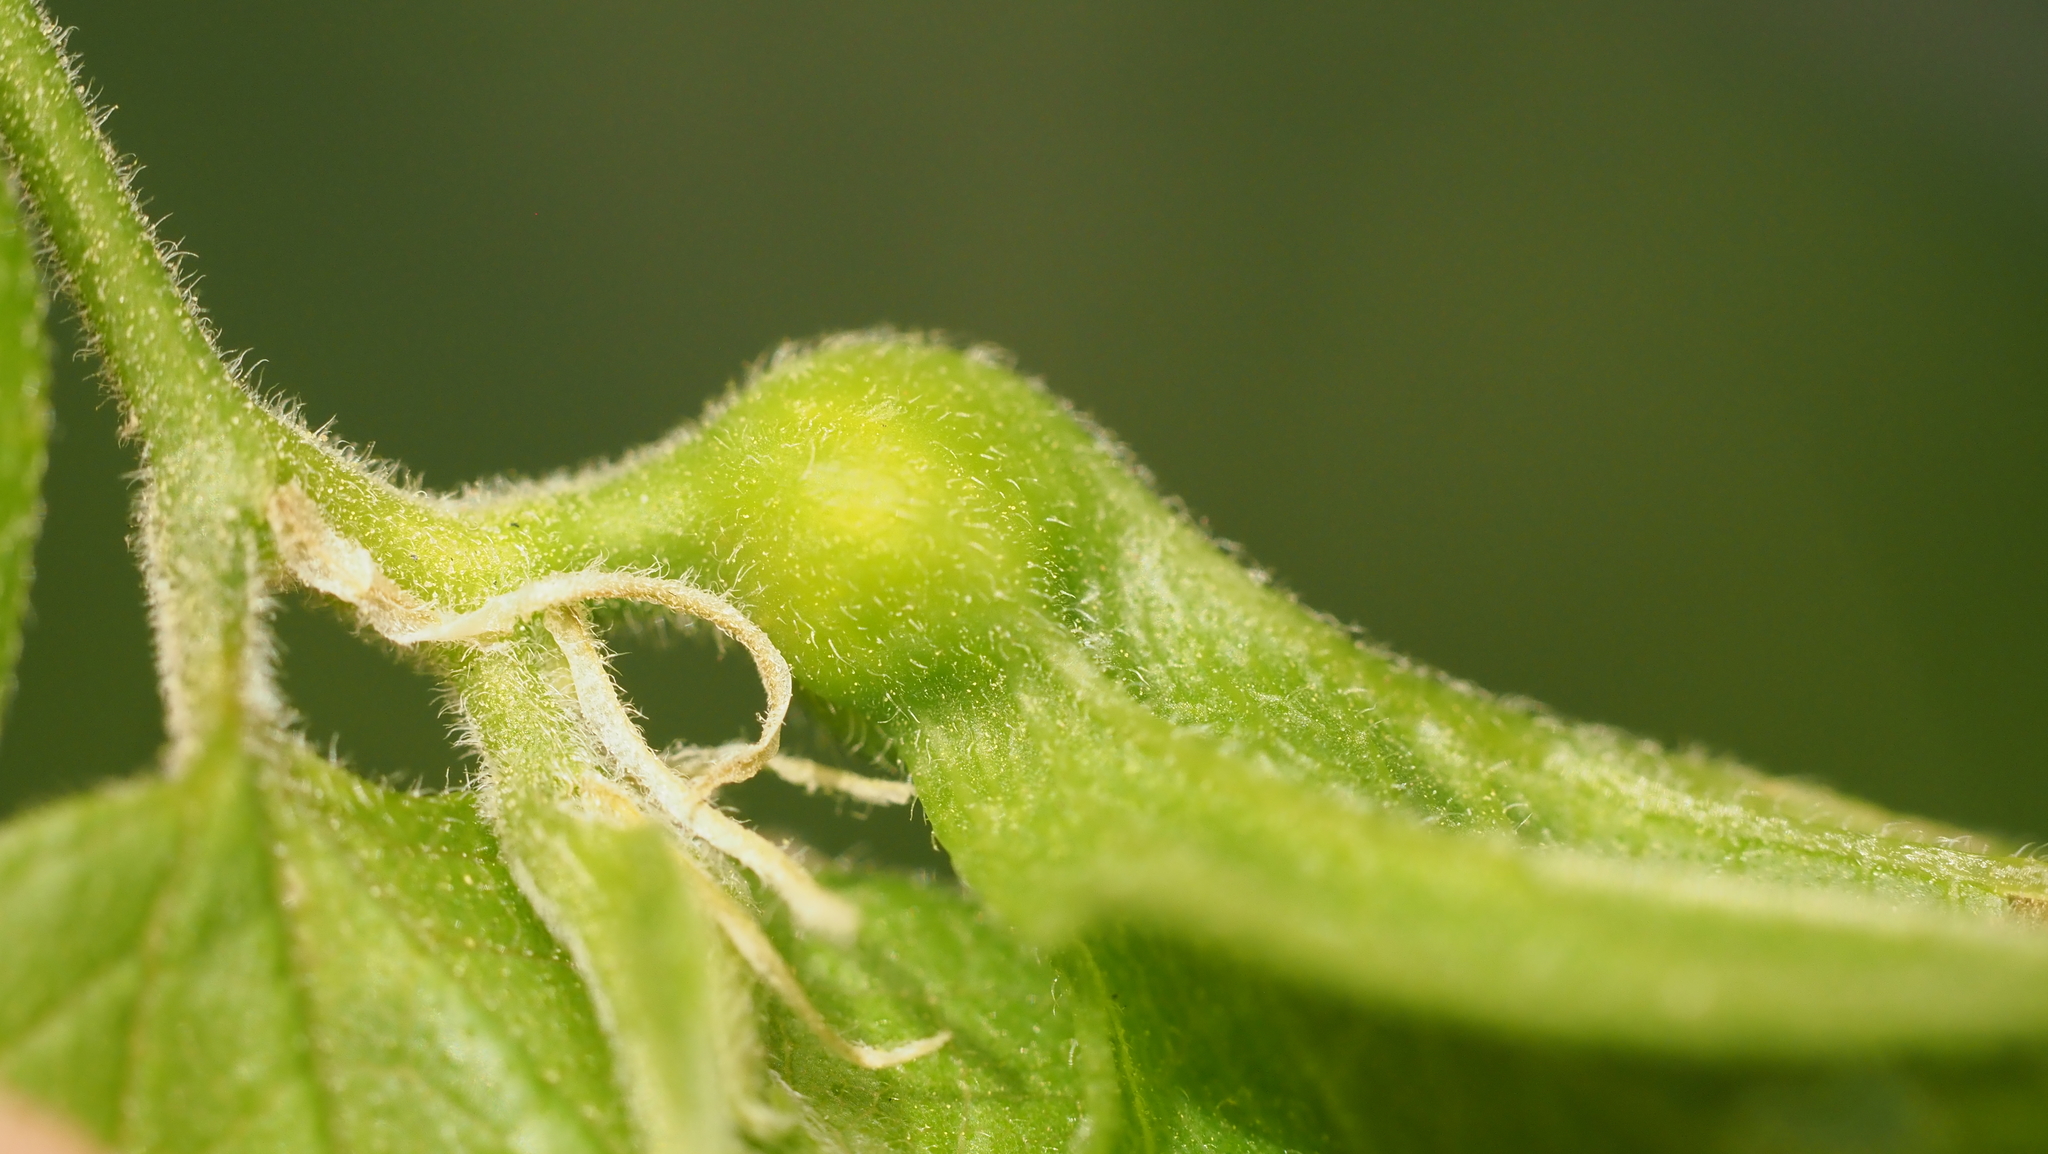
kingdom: Animalia
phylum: Arthropoda
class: Insecta
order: Hemiptera
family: Aphalaridae
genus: Pachypsylla
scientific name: Pachypsylla venusta
